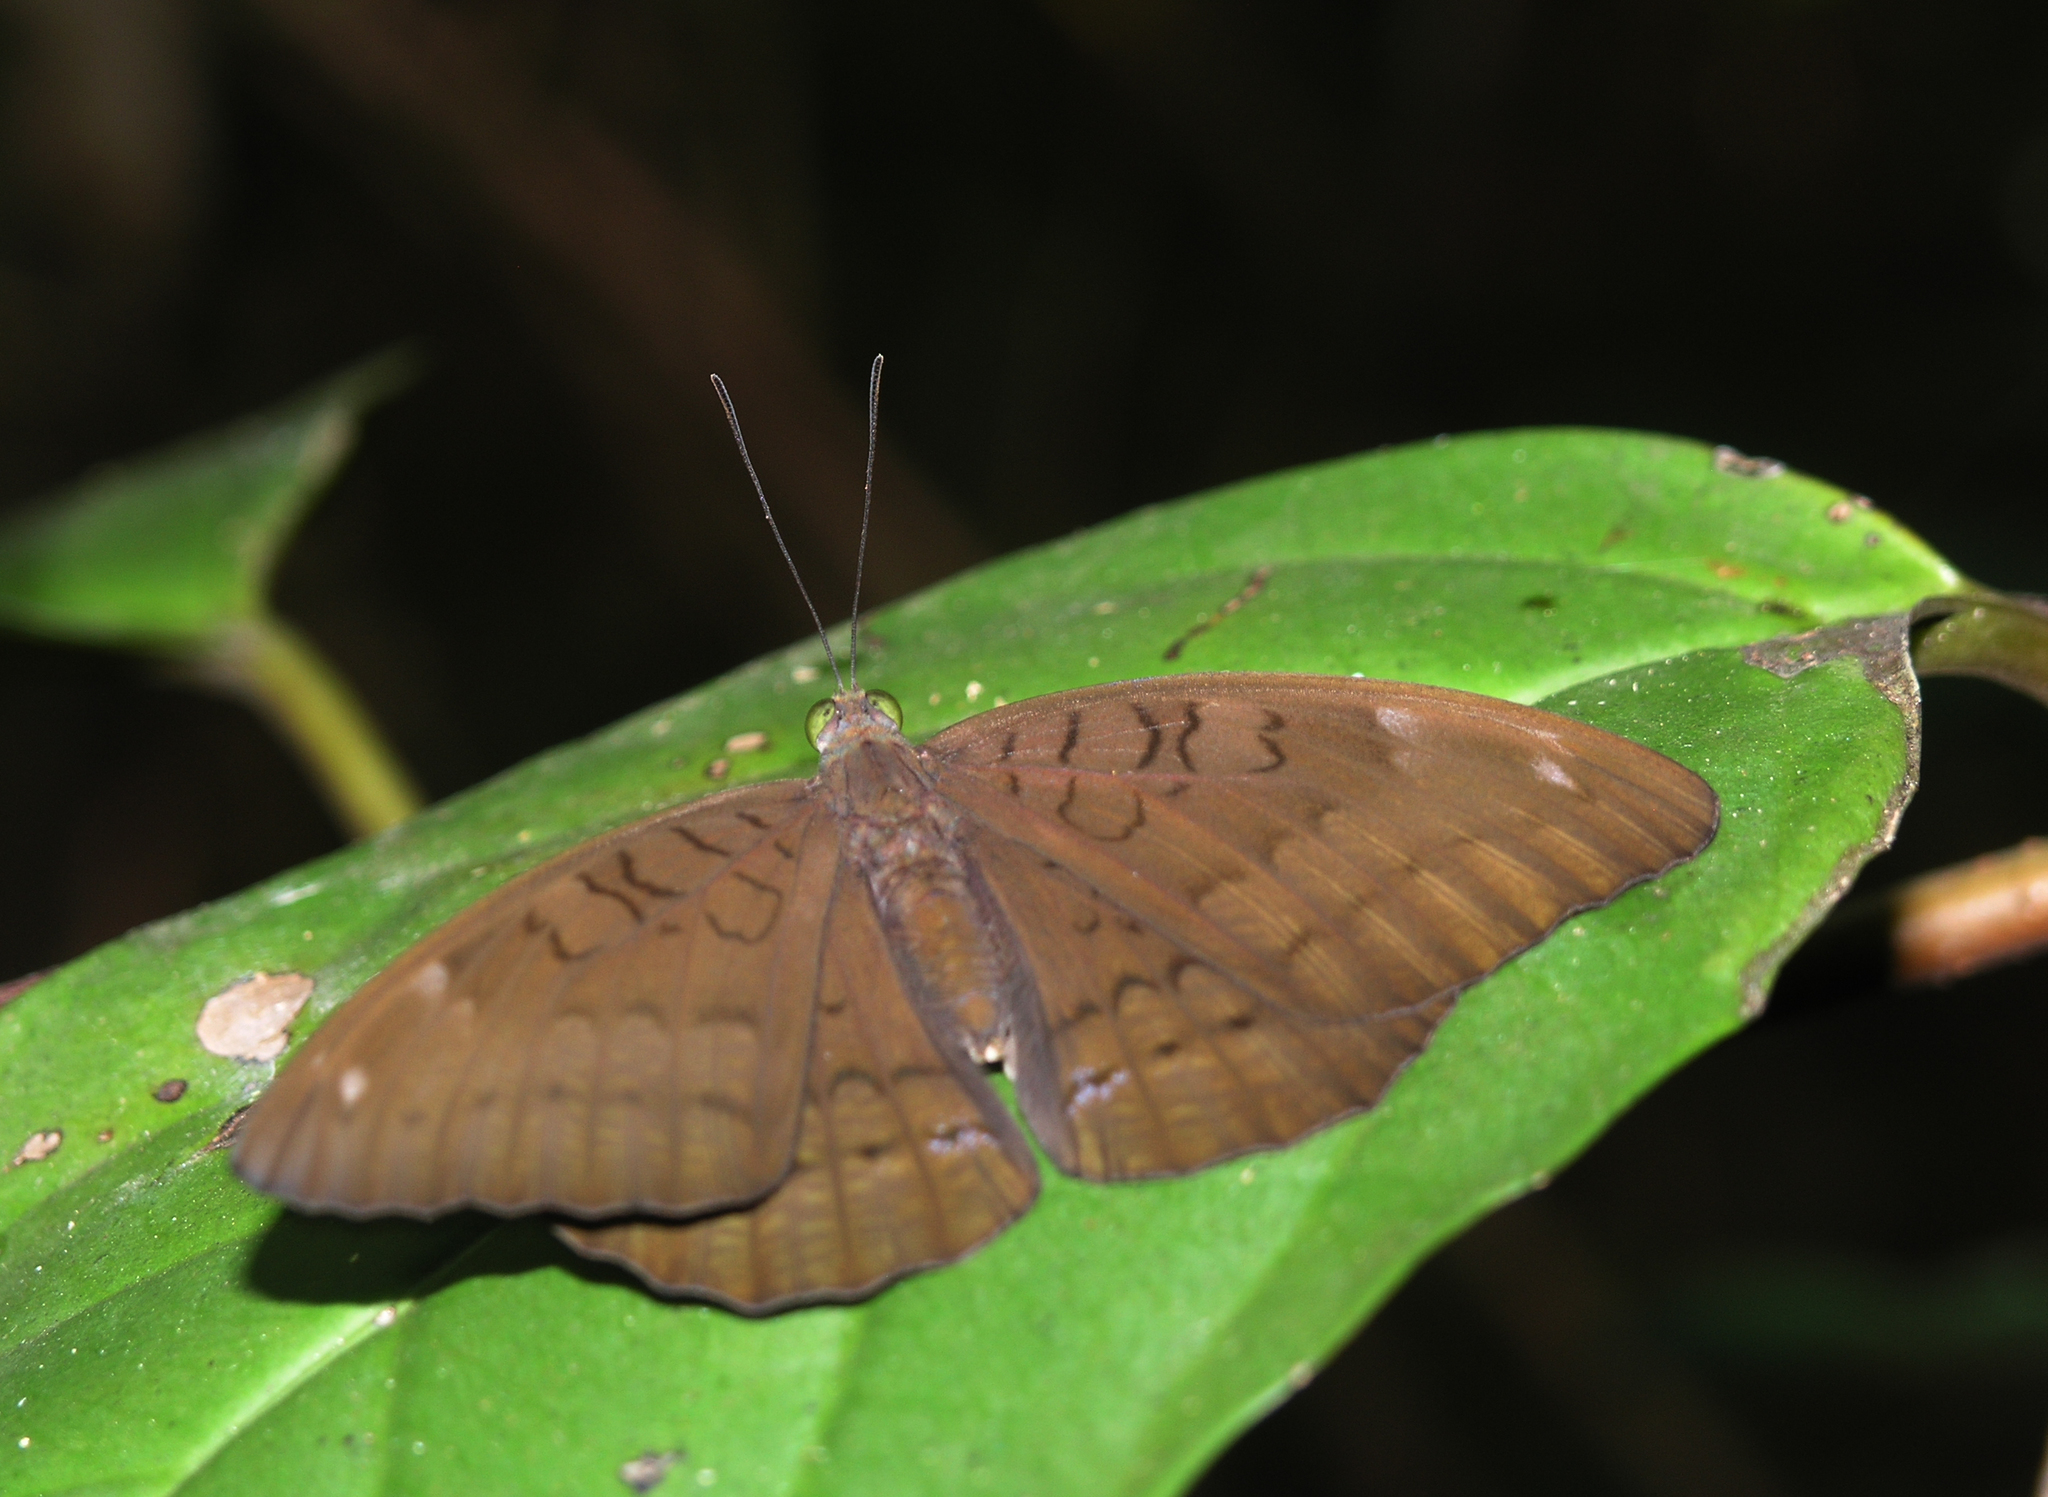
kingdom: Animalia
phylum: Arthropoda
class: Insecta
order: Lepidoptera
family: Nymphalidae
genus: Tanaecia
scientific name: Tanaecia julii
